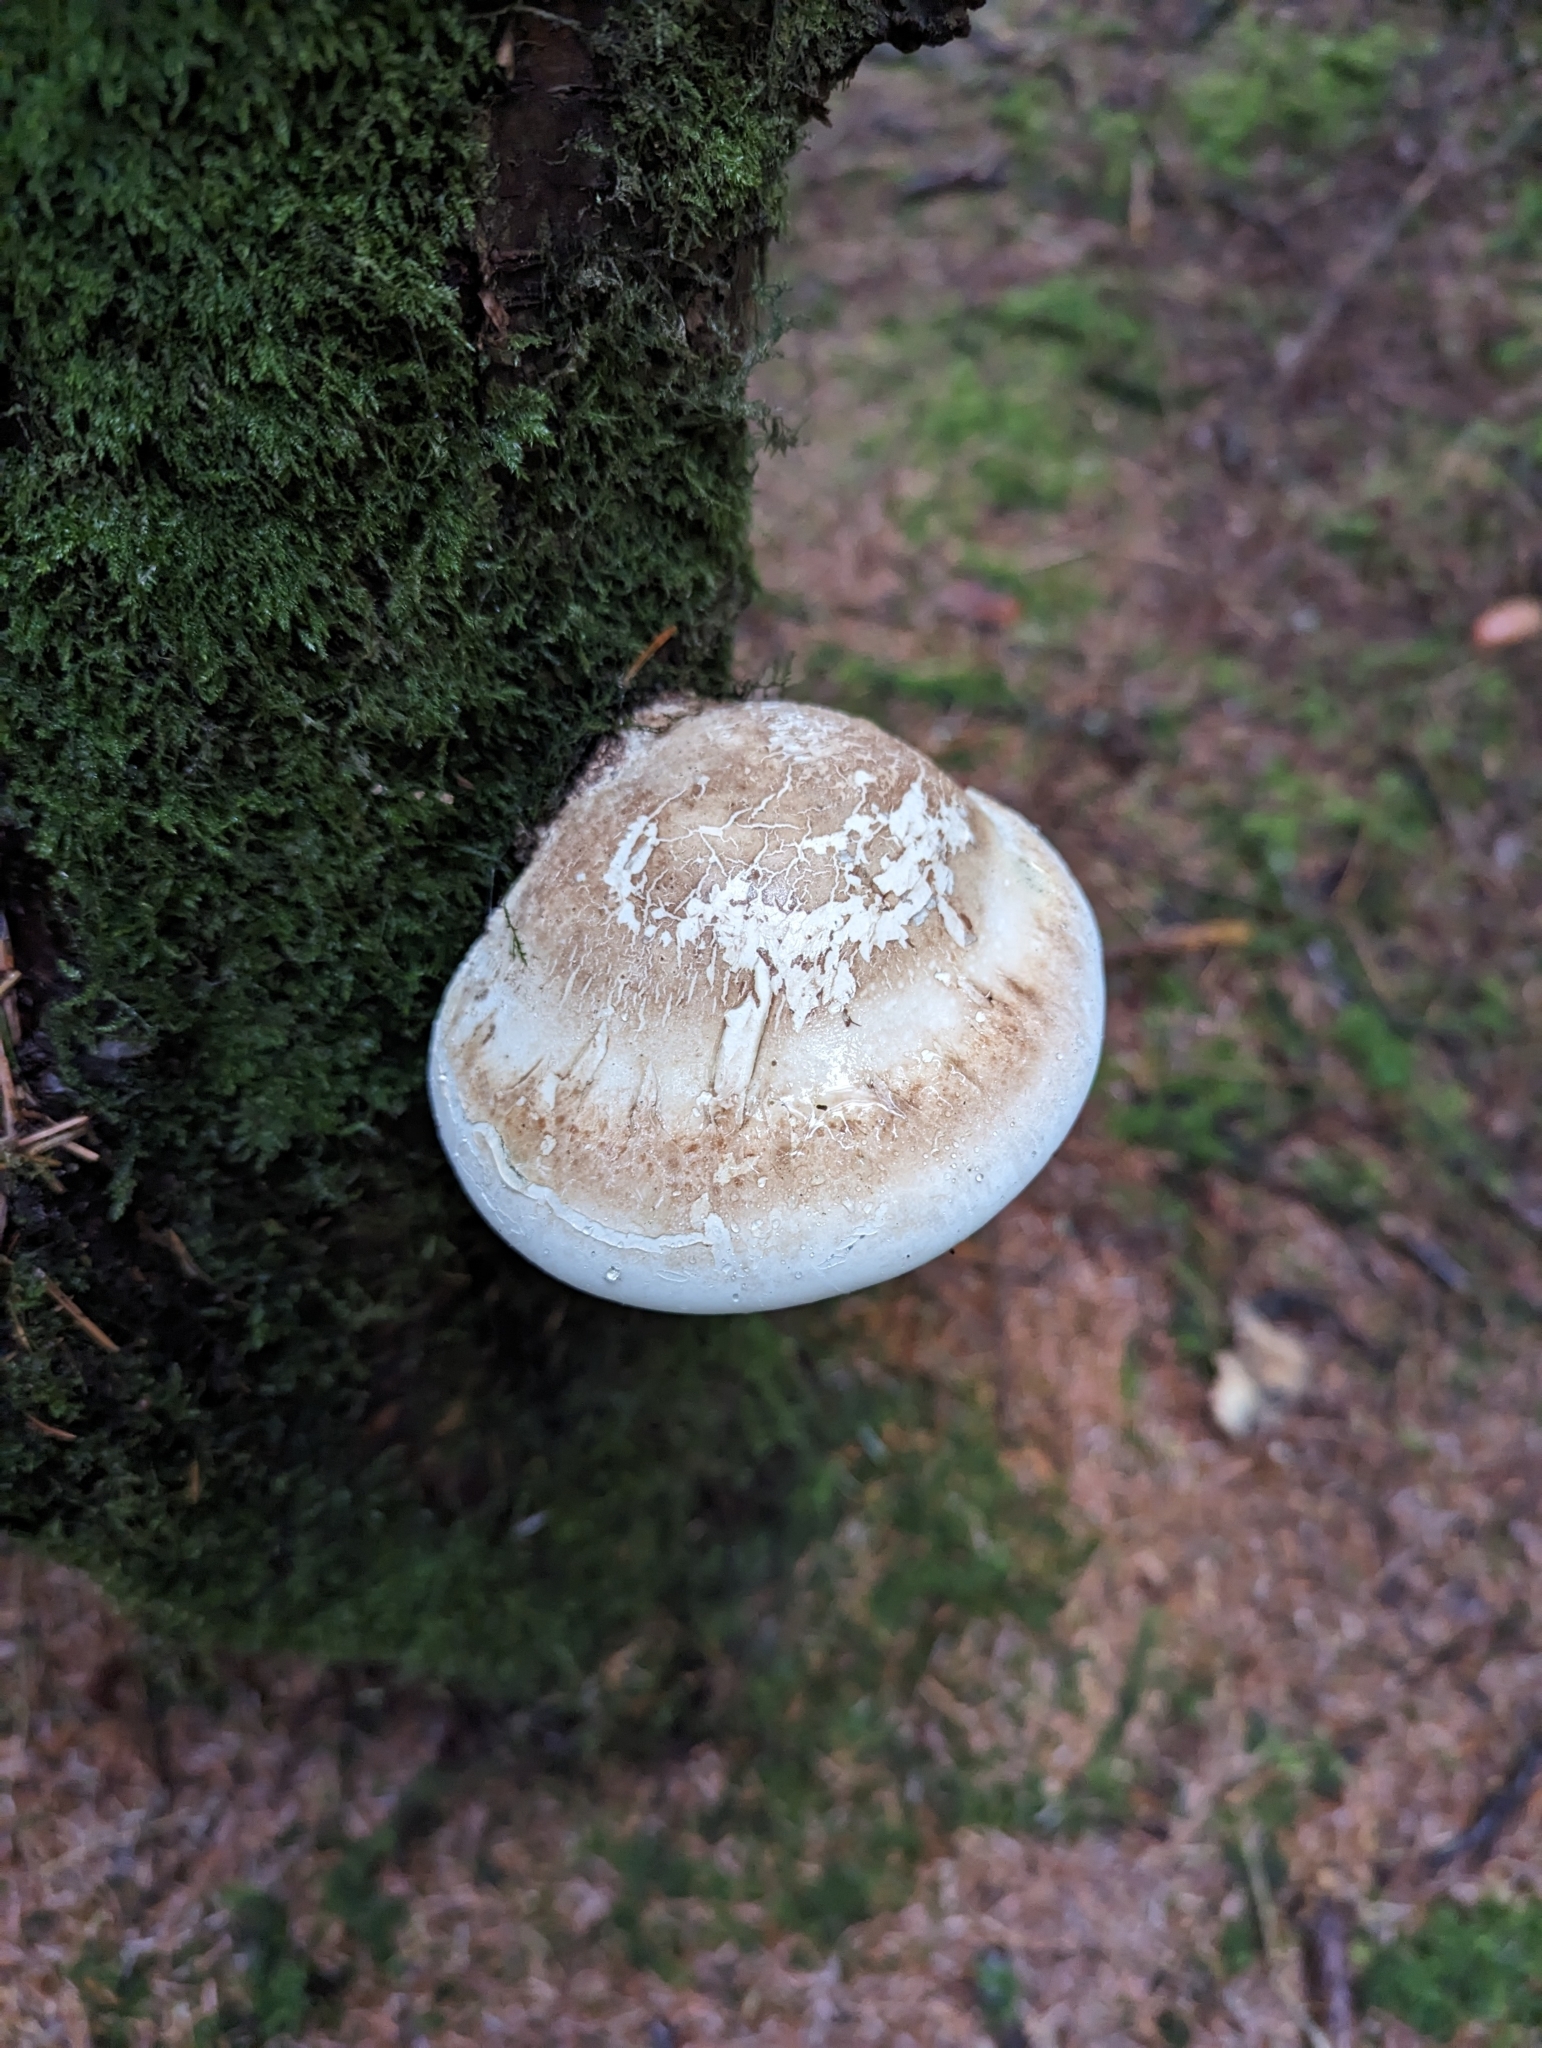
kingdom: Fungi
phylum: Basidiomycota
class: Agaricomycetes
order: Polyporales
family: Fomitopsidaceae
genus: Fomitopsis
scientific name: Fomitopsis betulina
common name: Birch polypore
